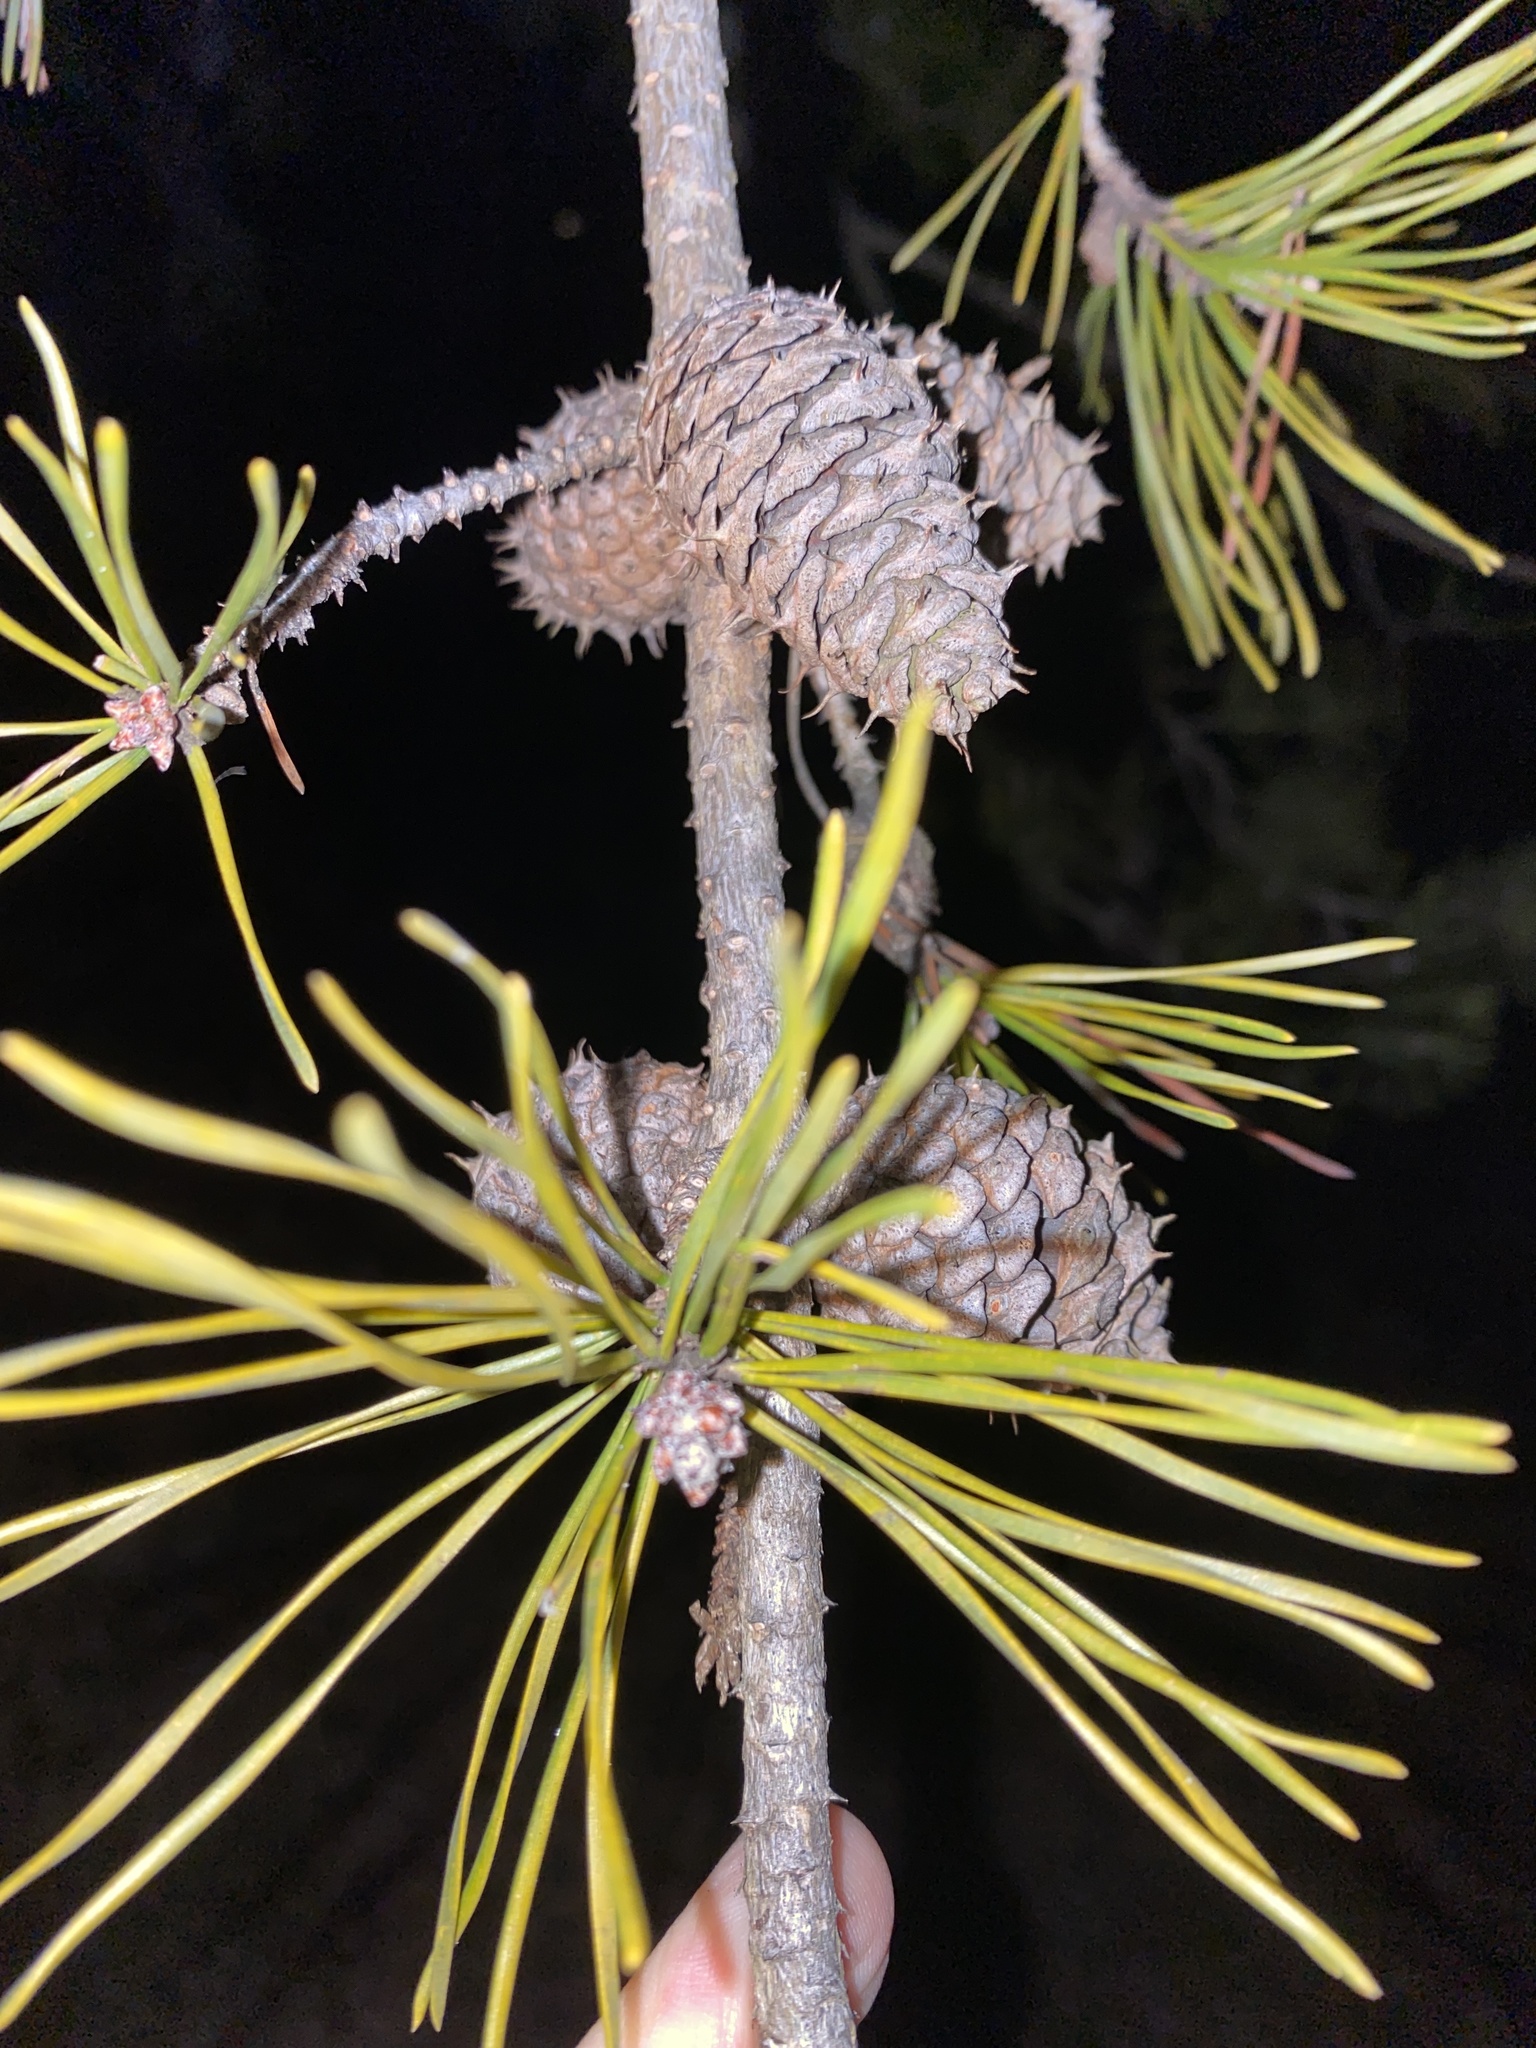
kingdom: Plantae
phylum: Tracheophyta
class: Pinopsida
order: Pinales
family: Pinaceae
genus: Pinus
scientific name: Pinus virginiana
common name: Scrub pine
